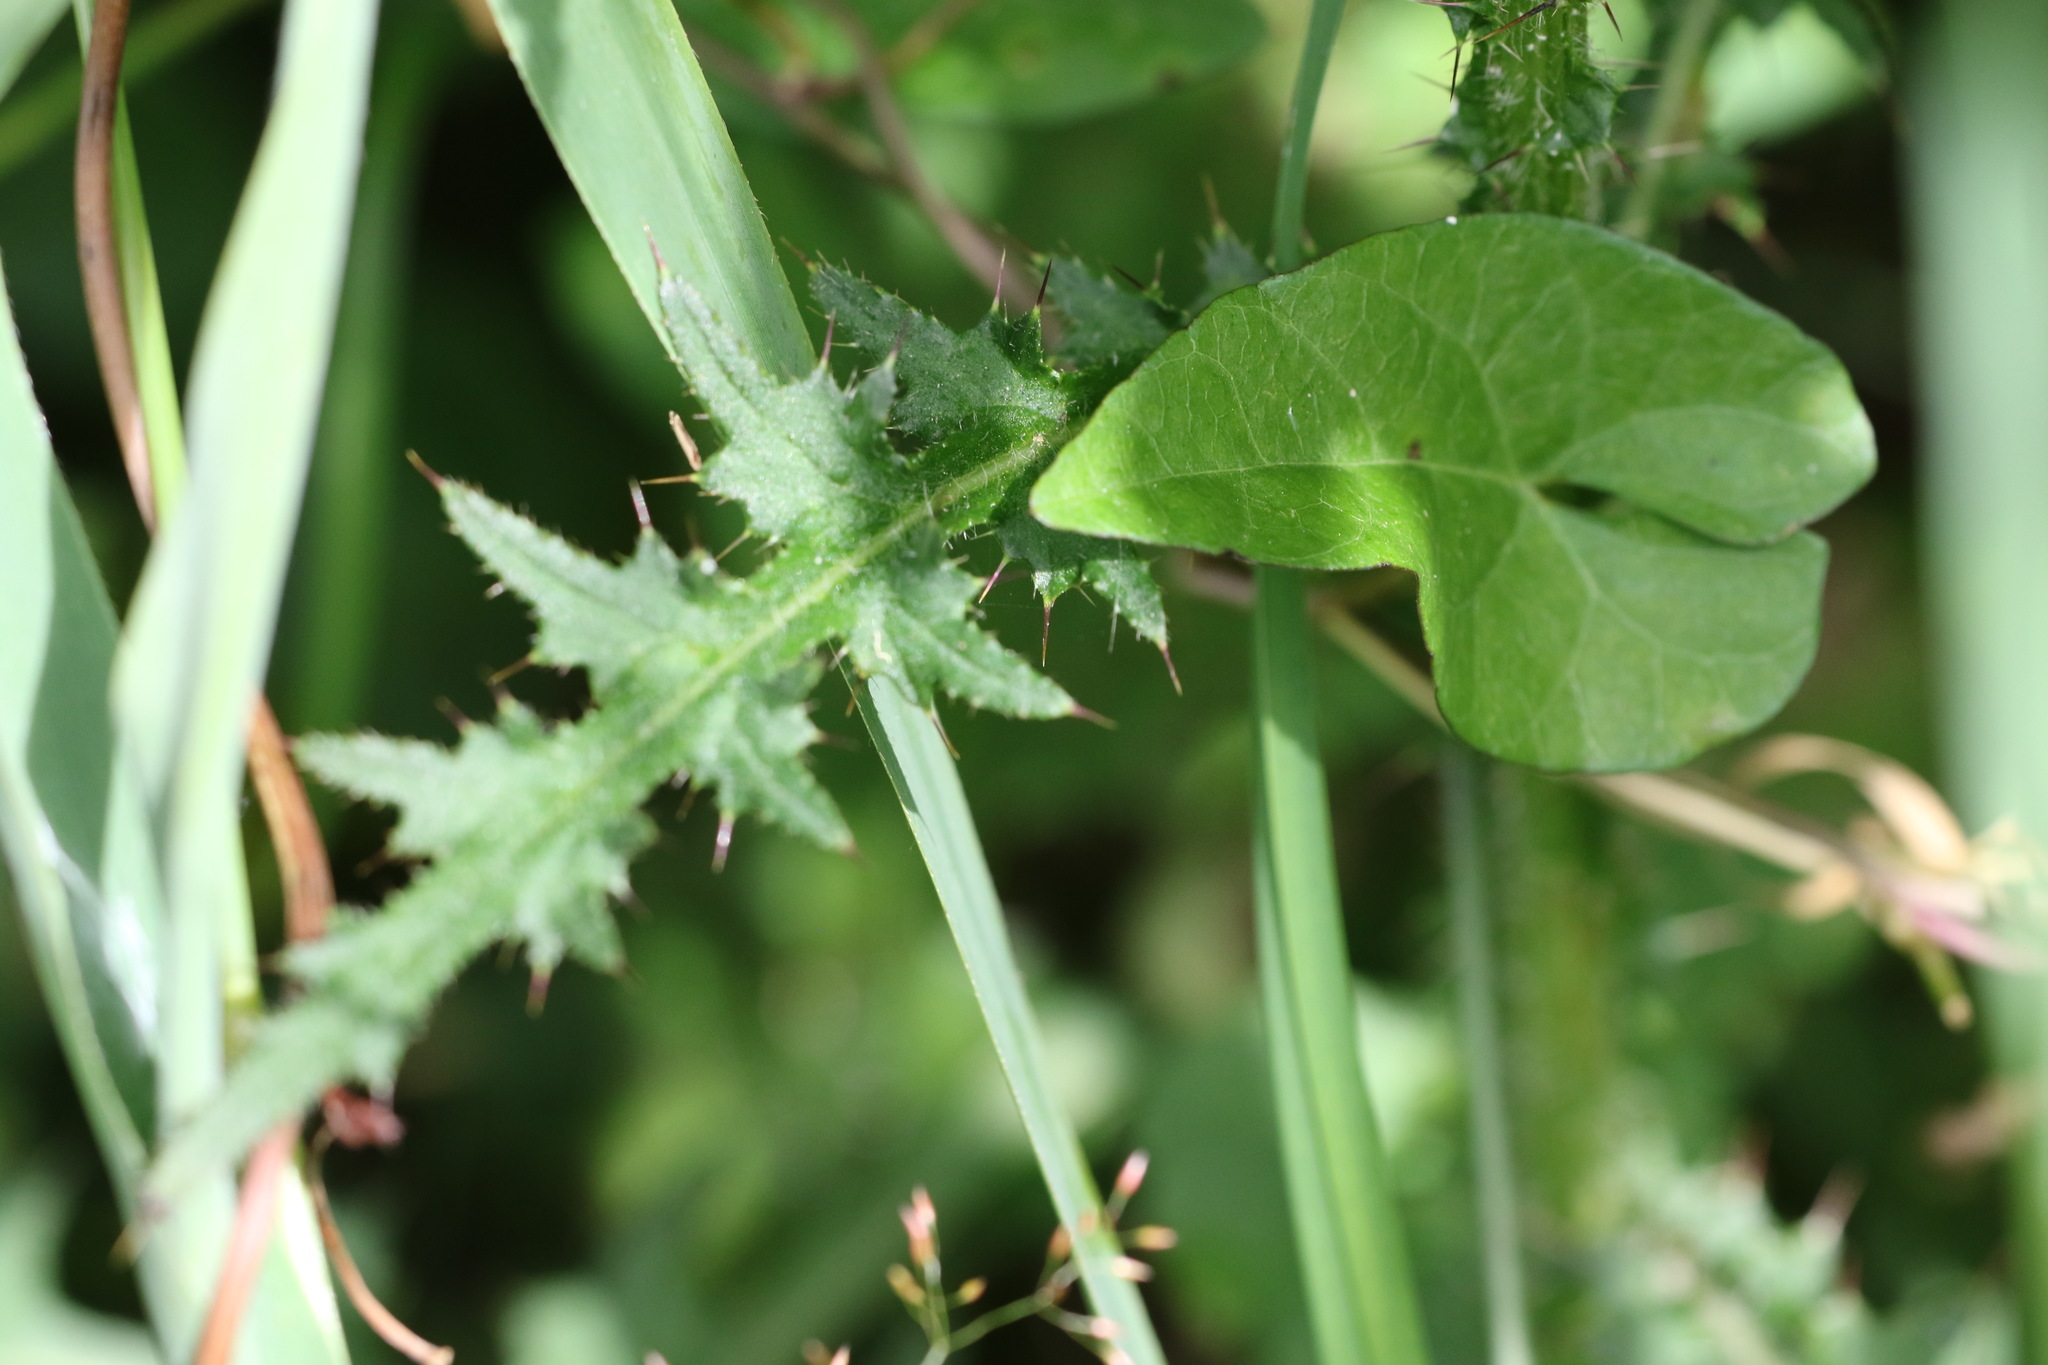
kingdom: Plantae
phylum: Tracheophyta
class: Magnoliopsida
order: Asterales
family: Asteraceae
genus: Cirsium
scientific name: Cirsium palustre
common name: Marsh thistle
